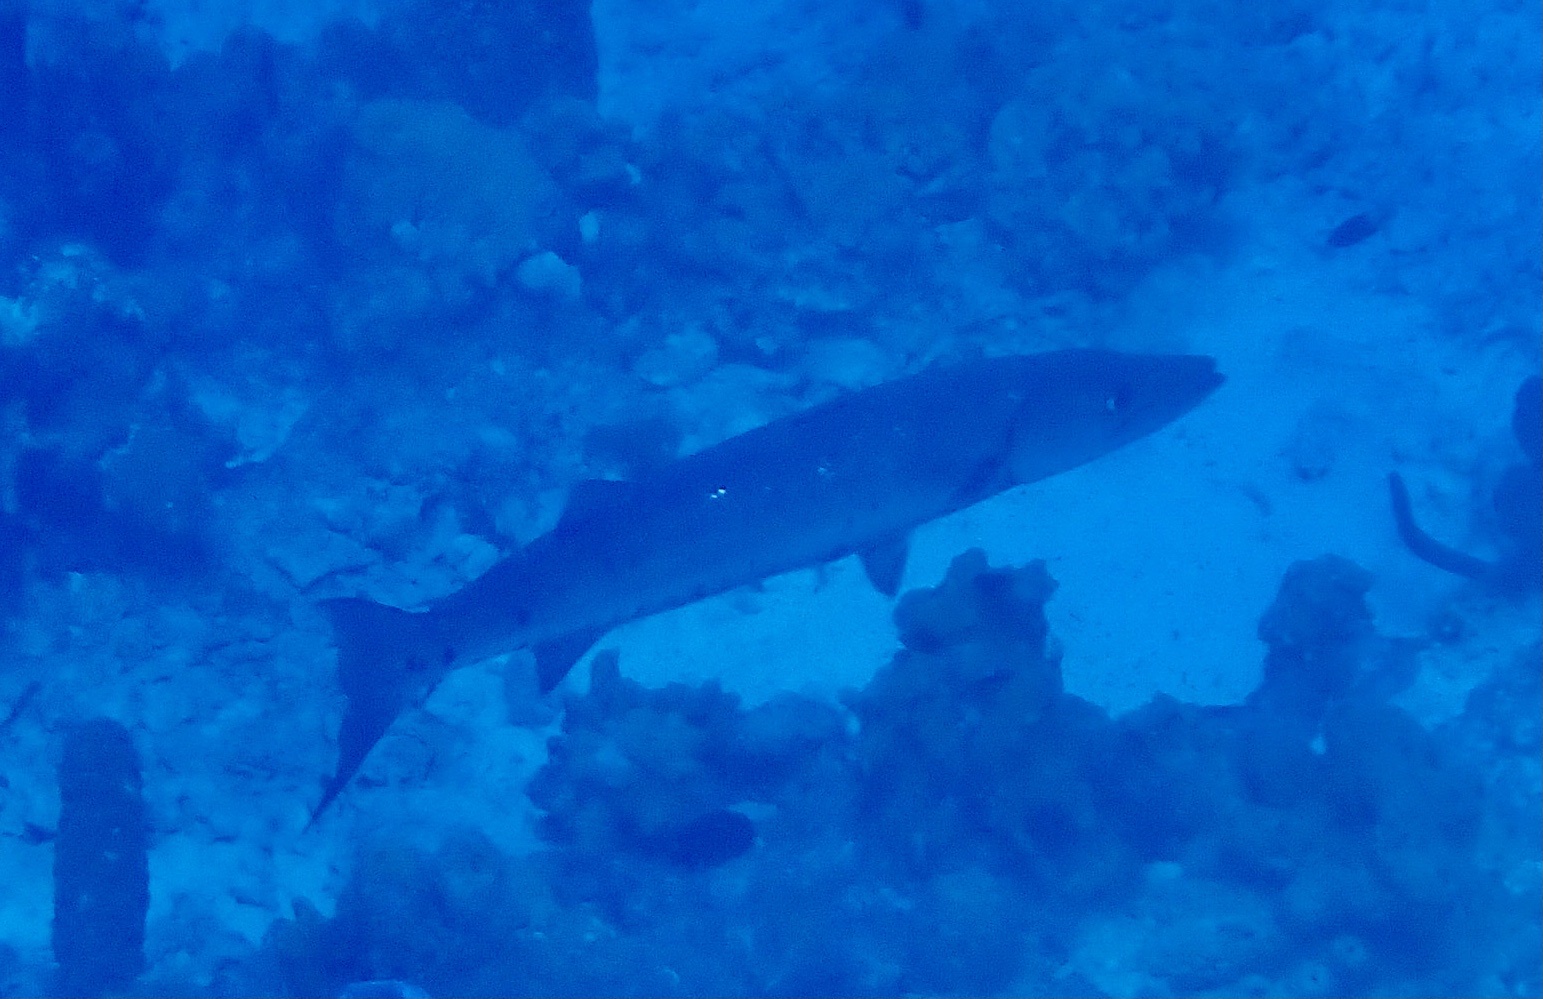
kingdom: Animalia
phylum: Chordata
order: Perciformes
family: Sphyraenidae
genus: Sphyraena
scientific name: Sphyraena barracuda
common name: Great barracuda
